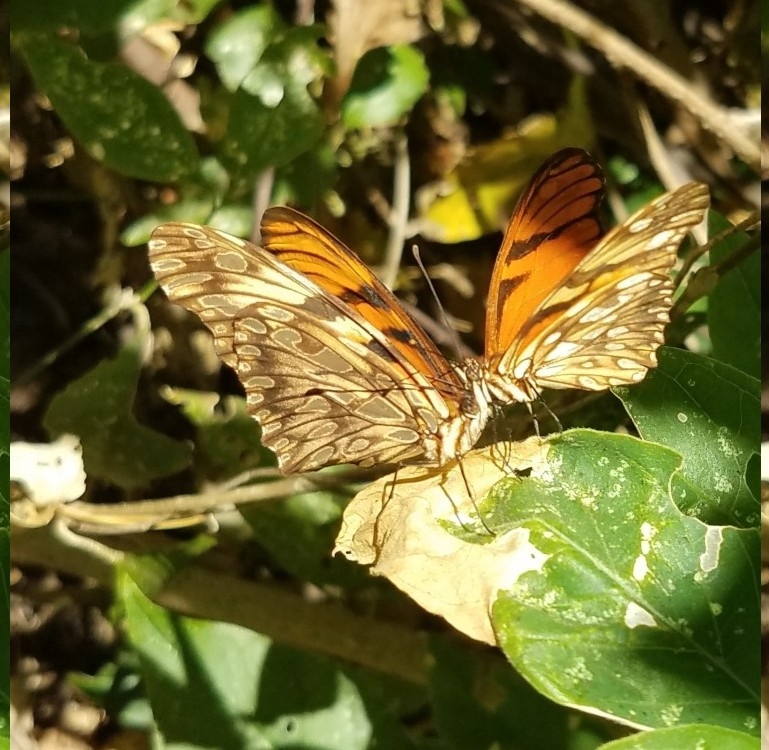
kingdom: Animalia
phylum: Arthropoda
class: Insecta
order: Lepidoptera
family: Nymphalidae
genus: Dione
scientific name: Dione juno
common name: Juno silverspot
